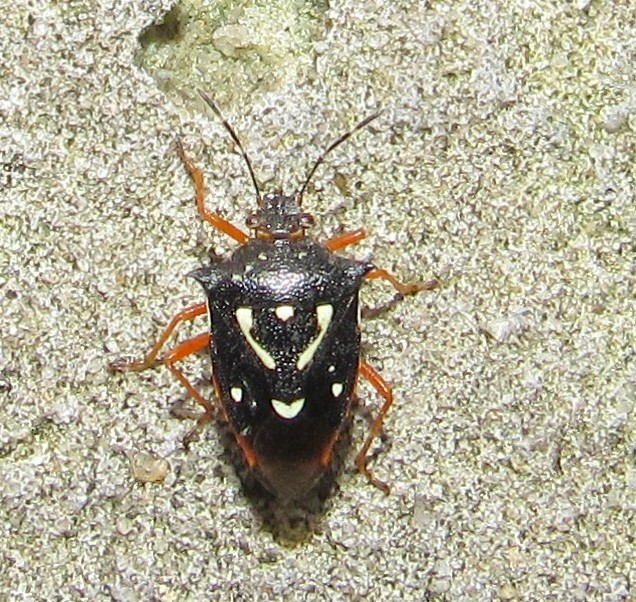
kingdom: Animalia
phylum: Arthropoda
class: Insecta
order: Hemiptera
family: Pentatomidae
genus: Mormidea
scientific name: Mormidea v-luteum
